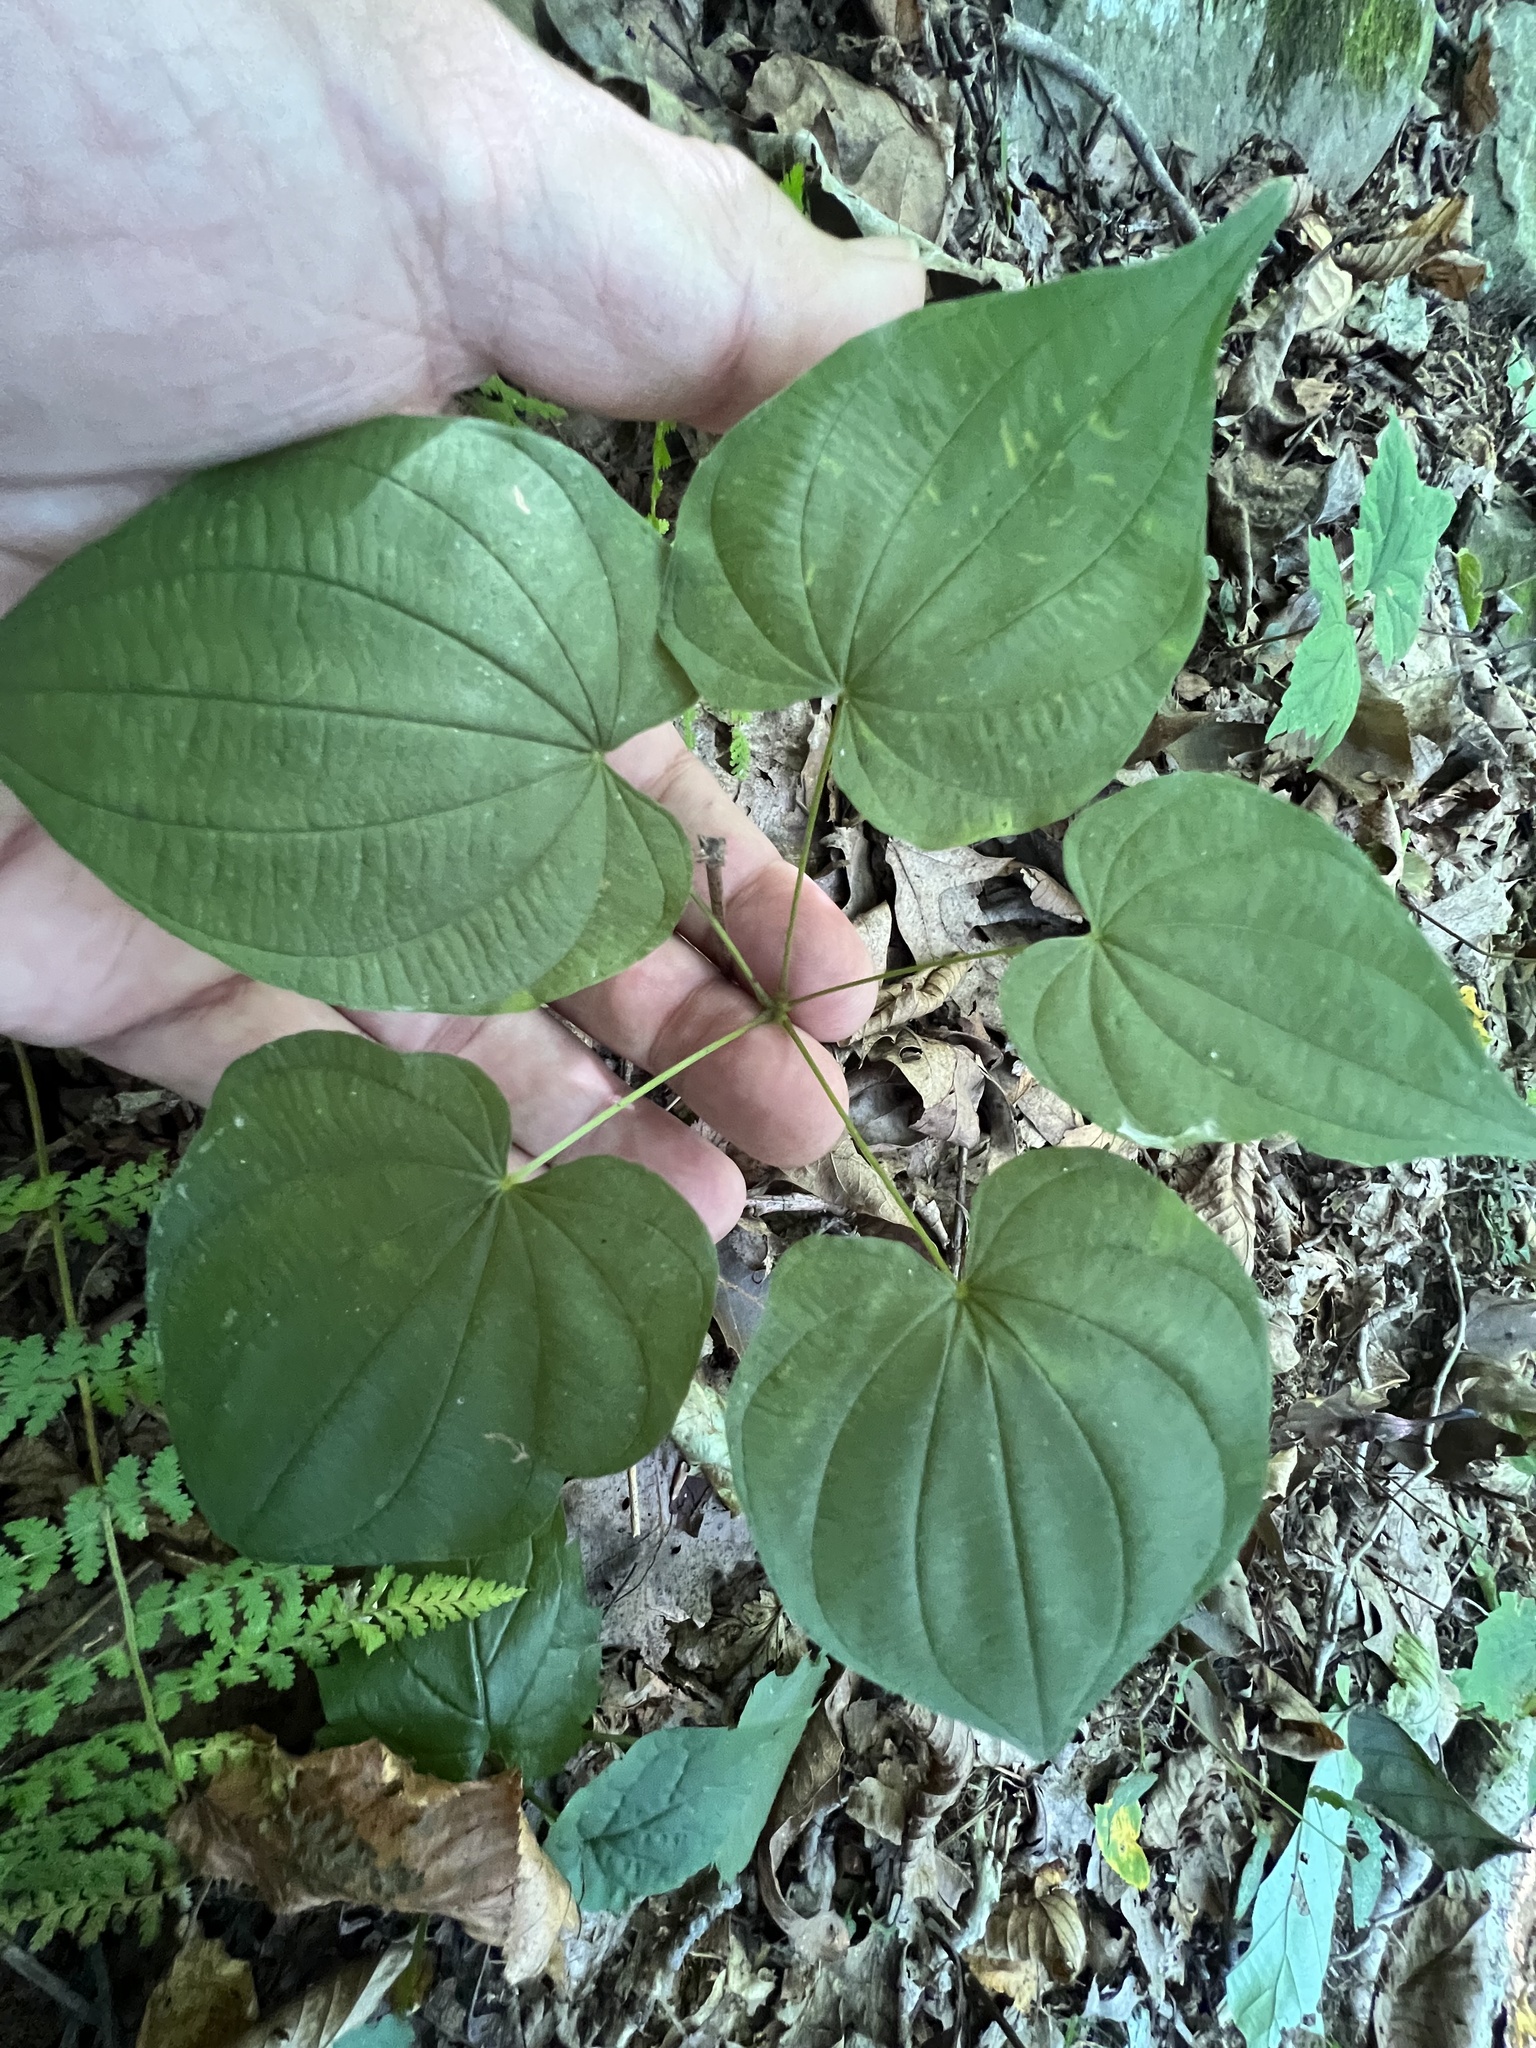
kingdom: Plantae
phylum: Tracheophyta
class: Liliopsida
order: Dioscoreales
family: Dioscoreaceae
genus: Dioscorea
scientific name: Dioscorea villosa
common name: Wild yam
